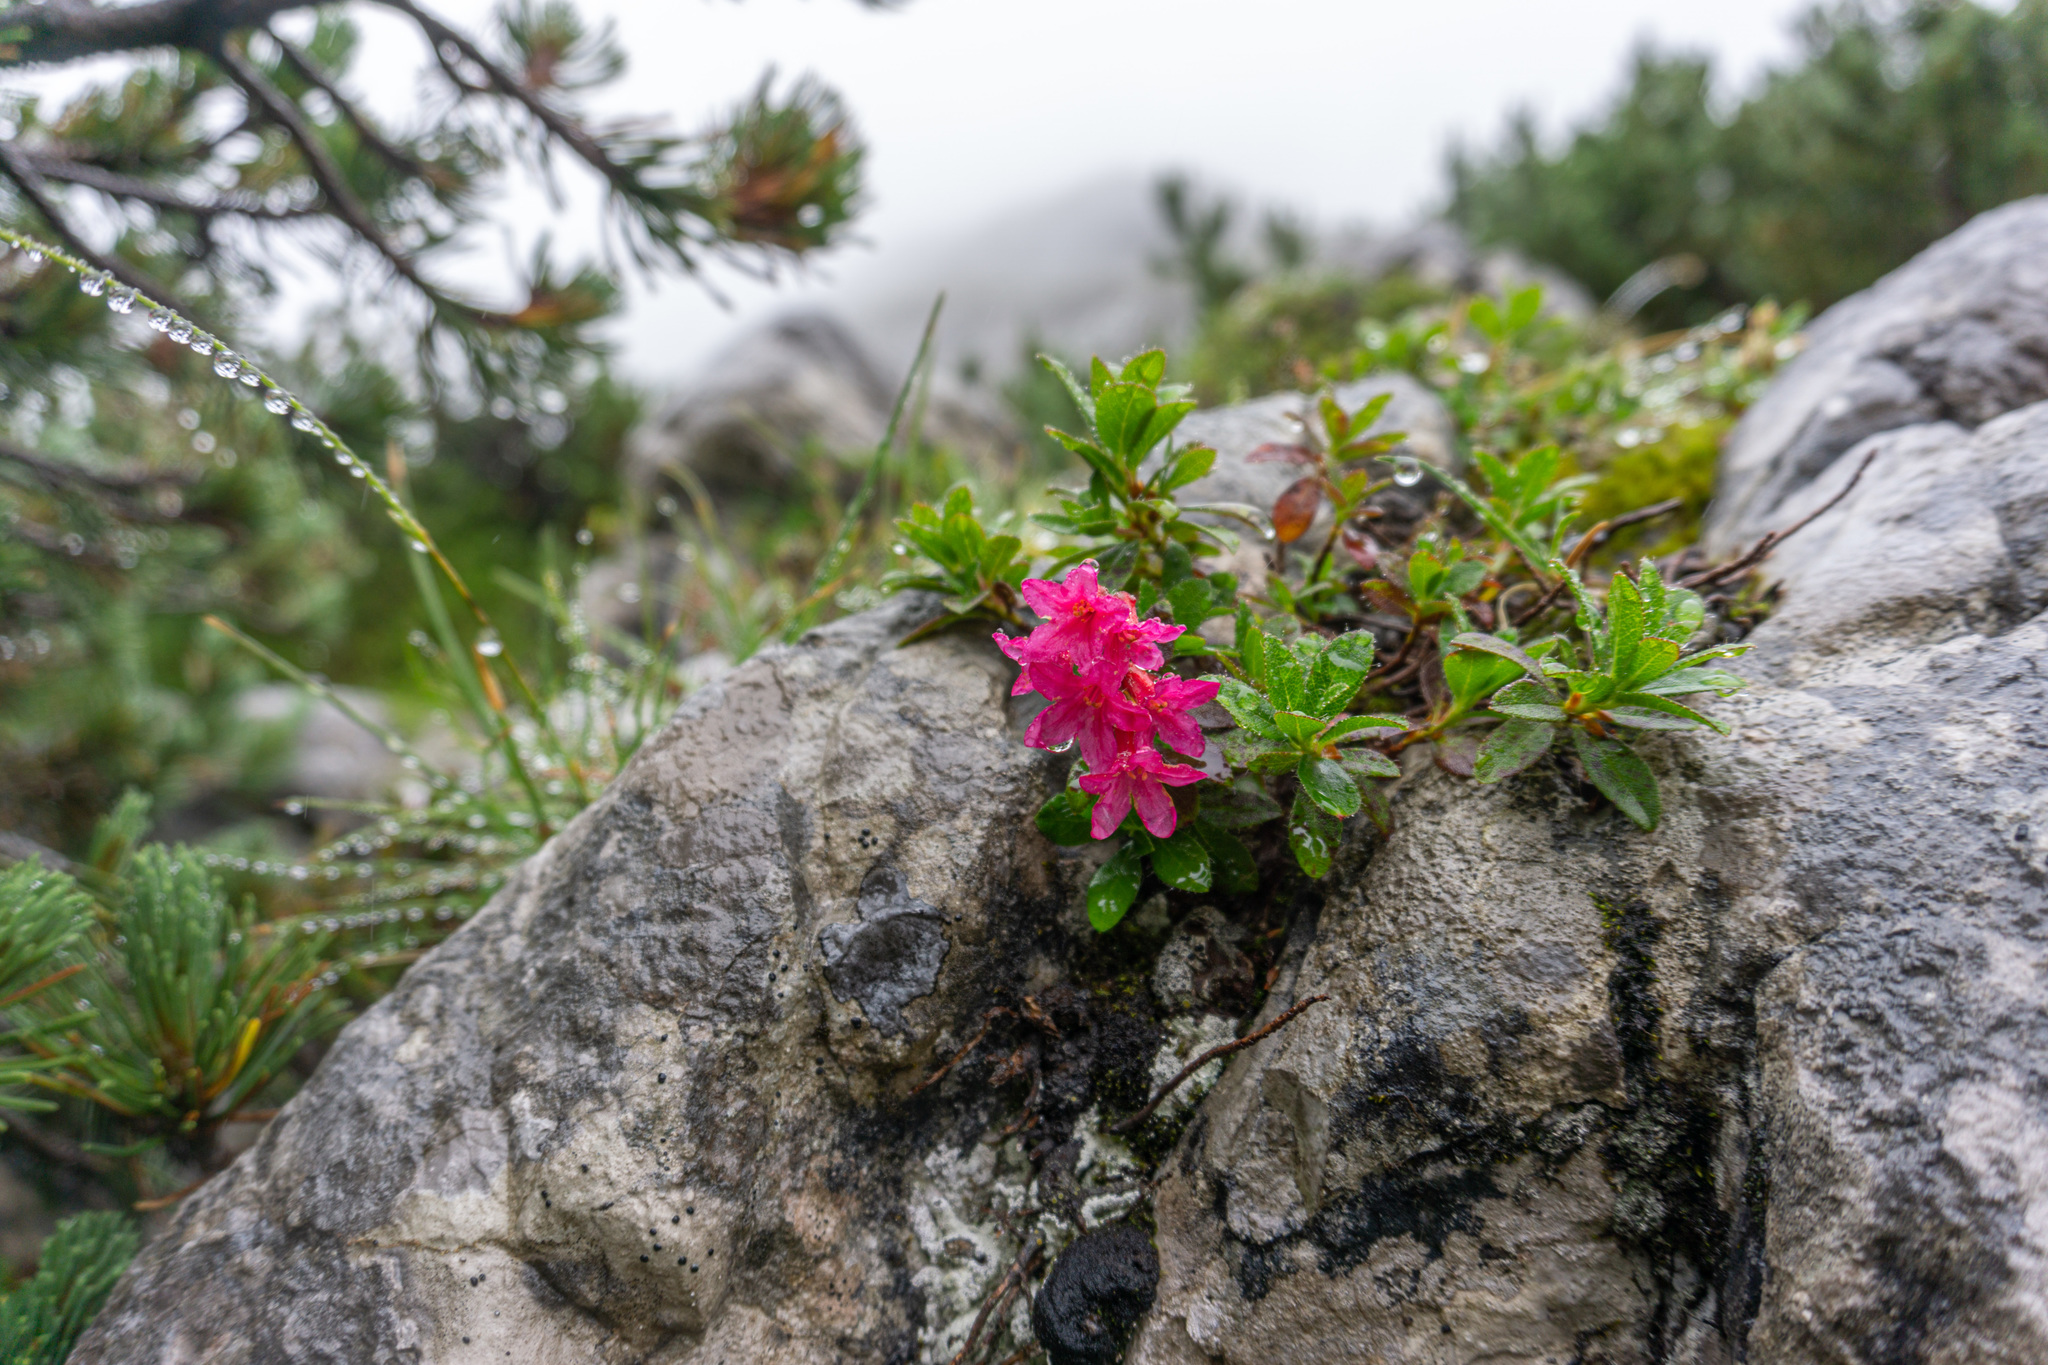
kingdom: Plantae
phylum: Tracheophyta
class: Magnoliopsida
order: Ericales
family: Ericaceae
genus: Rhododendron
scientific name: Rhododendron hirsutum
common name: Hairy alpenrose
